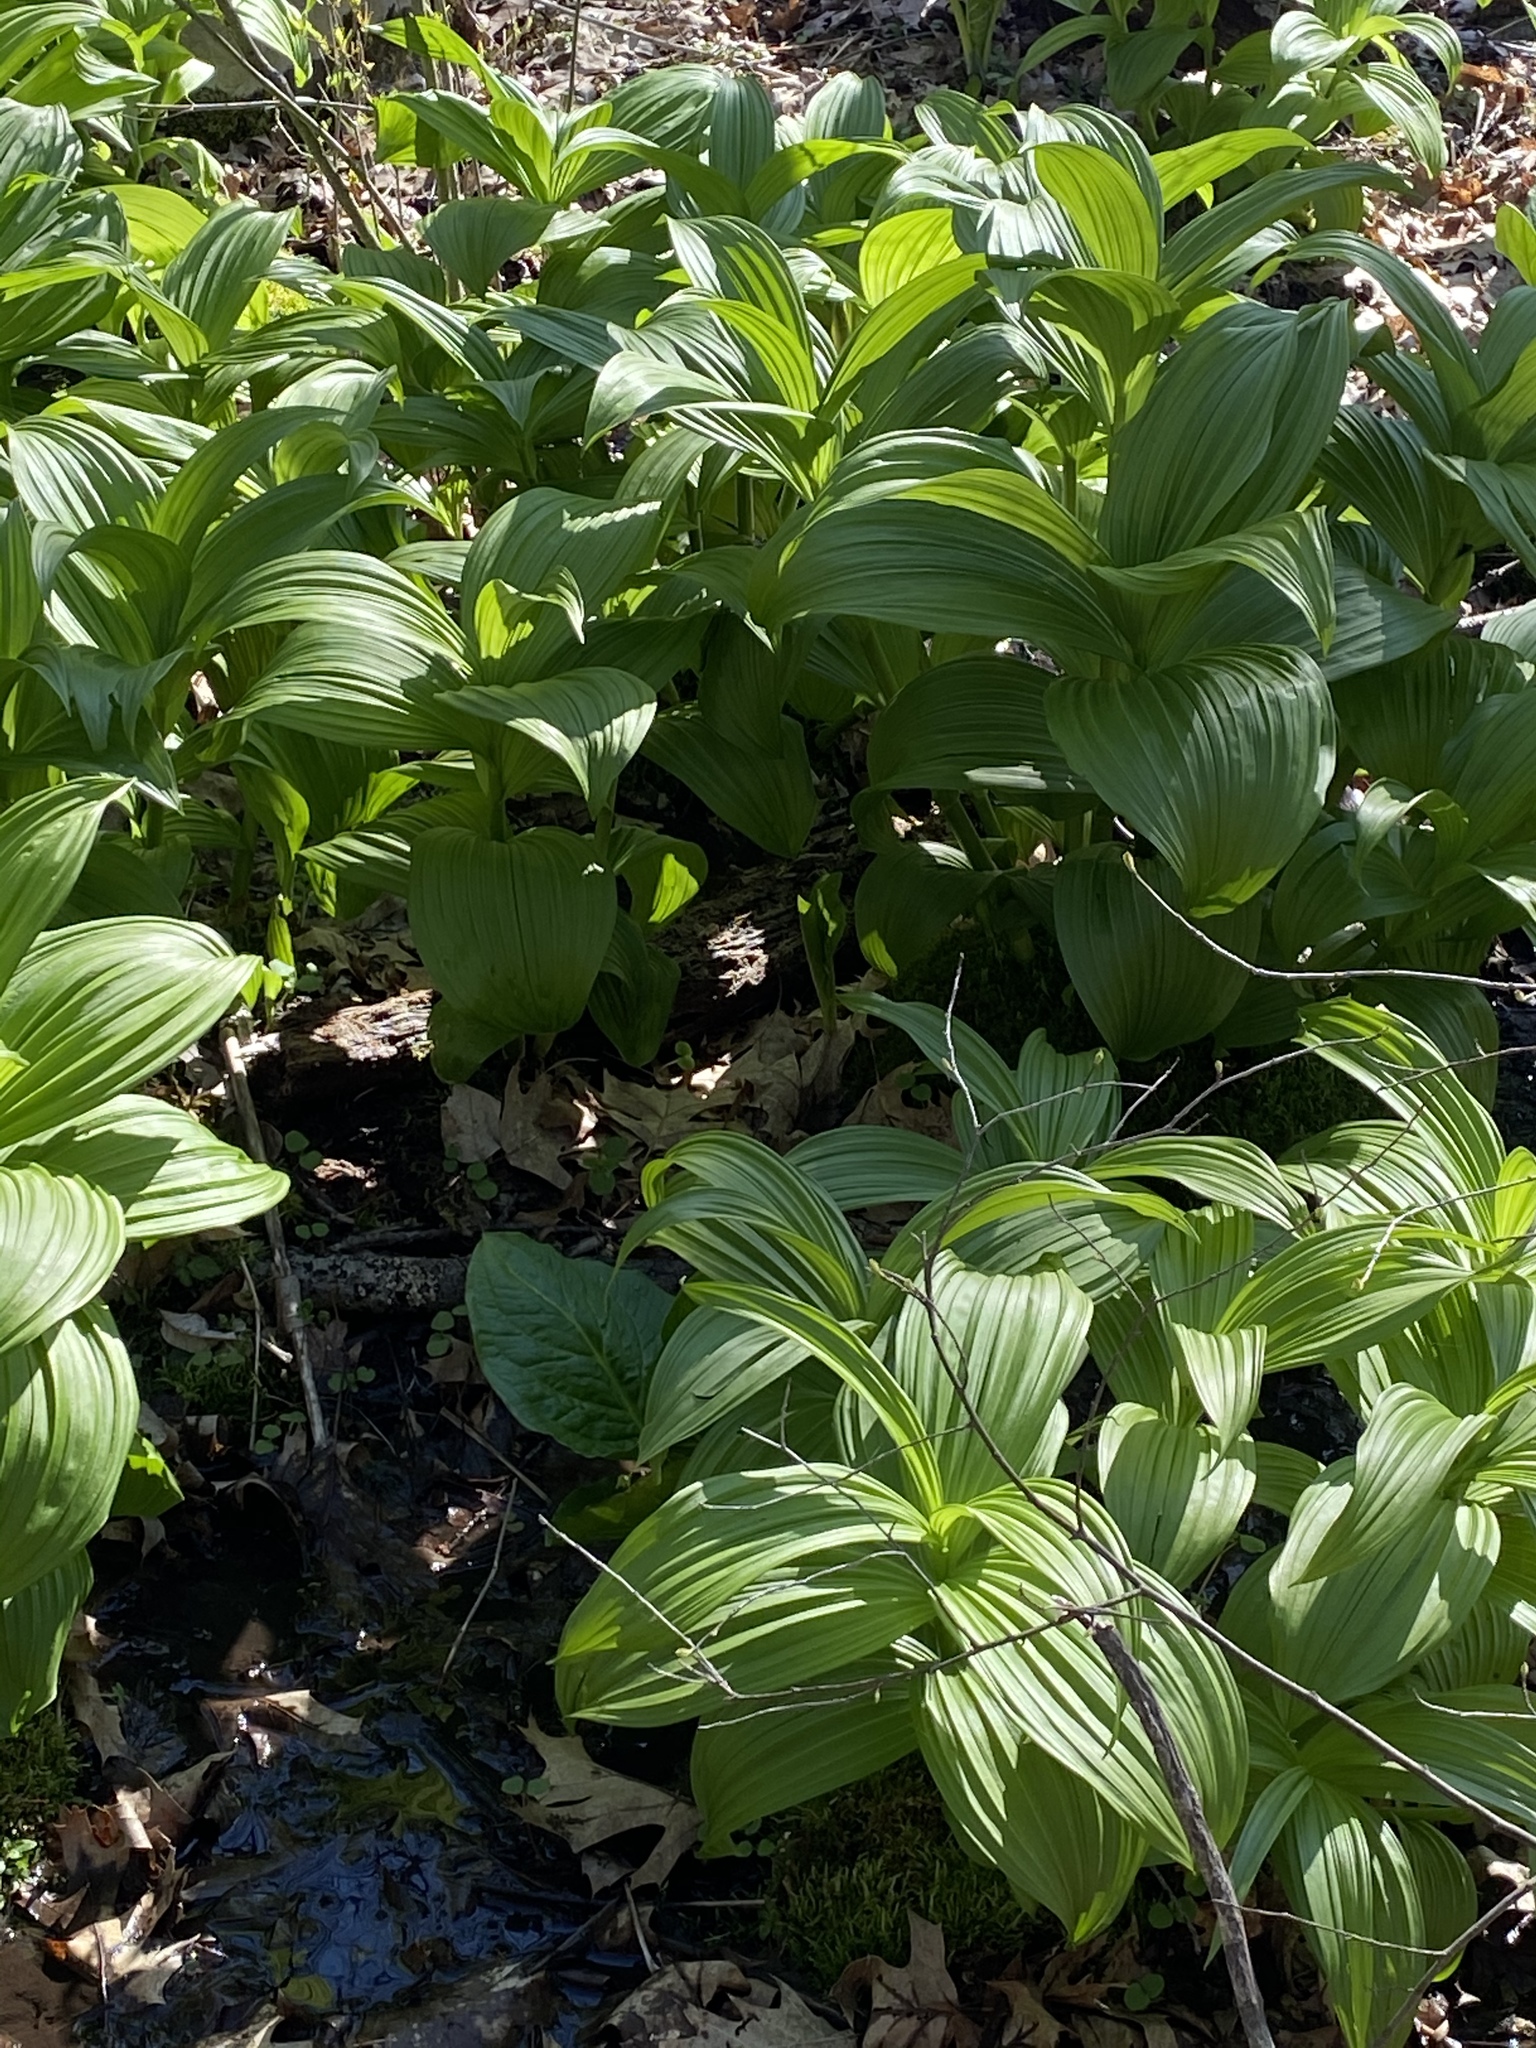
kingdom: Plantae
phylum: Tracheophyta
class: Liliopsida
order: Liliales
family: Melanthiaceae
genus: Veratrum
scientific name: Veratrum viride
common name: American false hellebore
